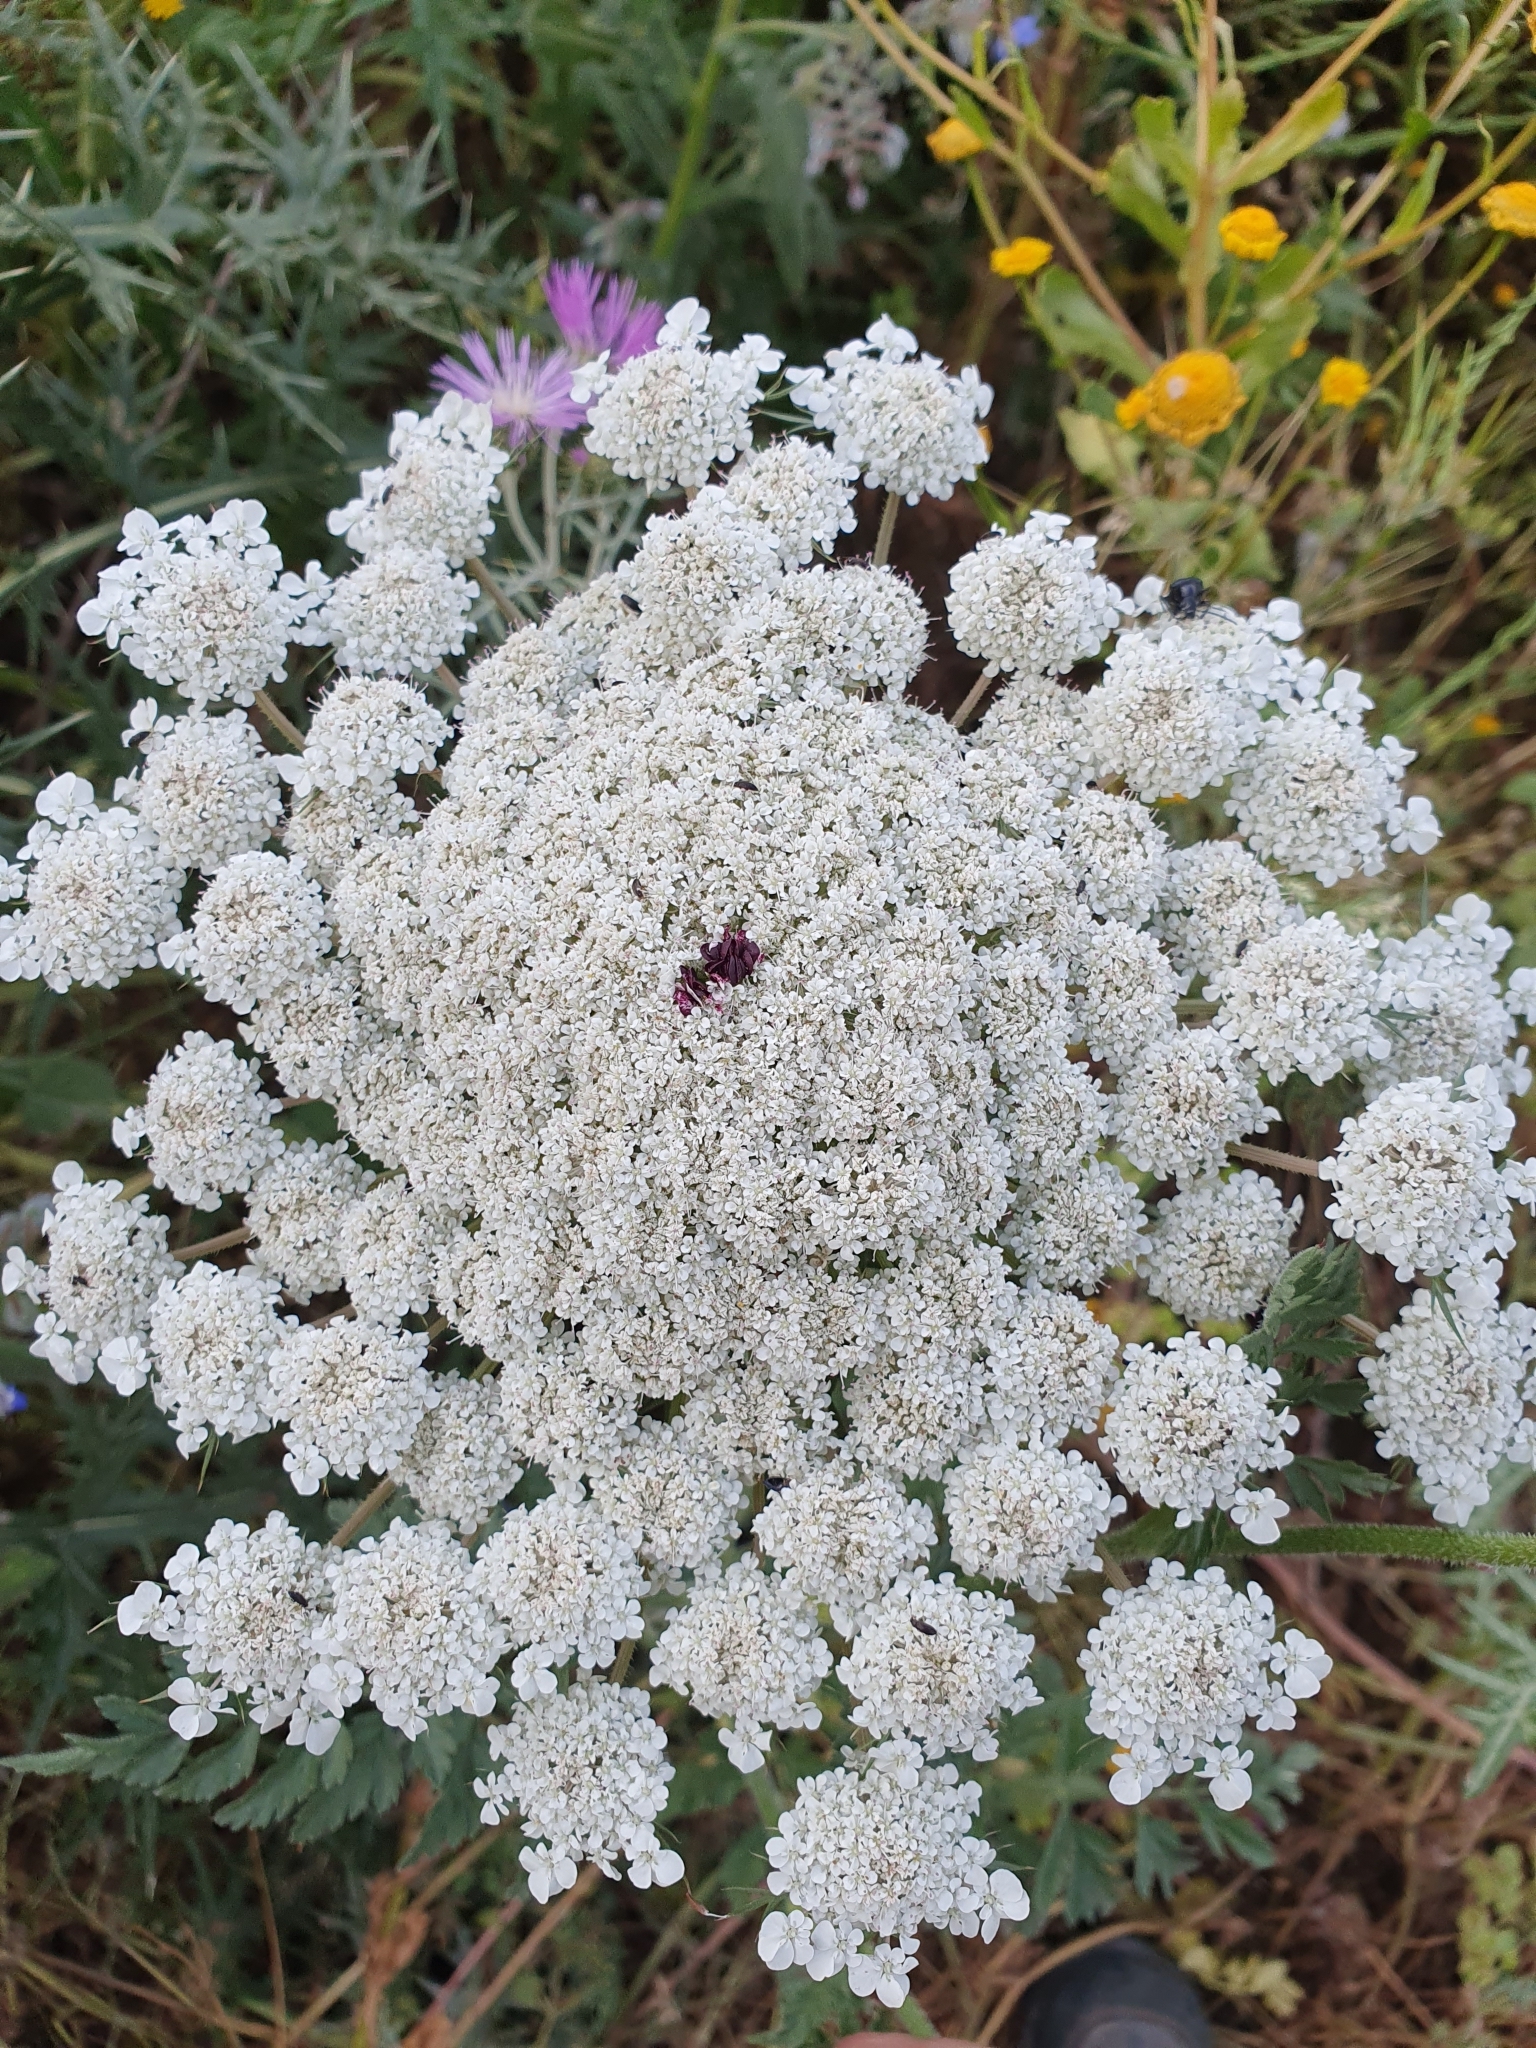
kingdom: Plantae
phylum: Tracheophyta
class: Magnoliopsida
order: Apiales
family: Apiaceae
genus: Daucus
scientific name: Daucus carota
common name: Wild carrot
